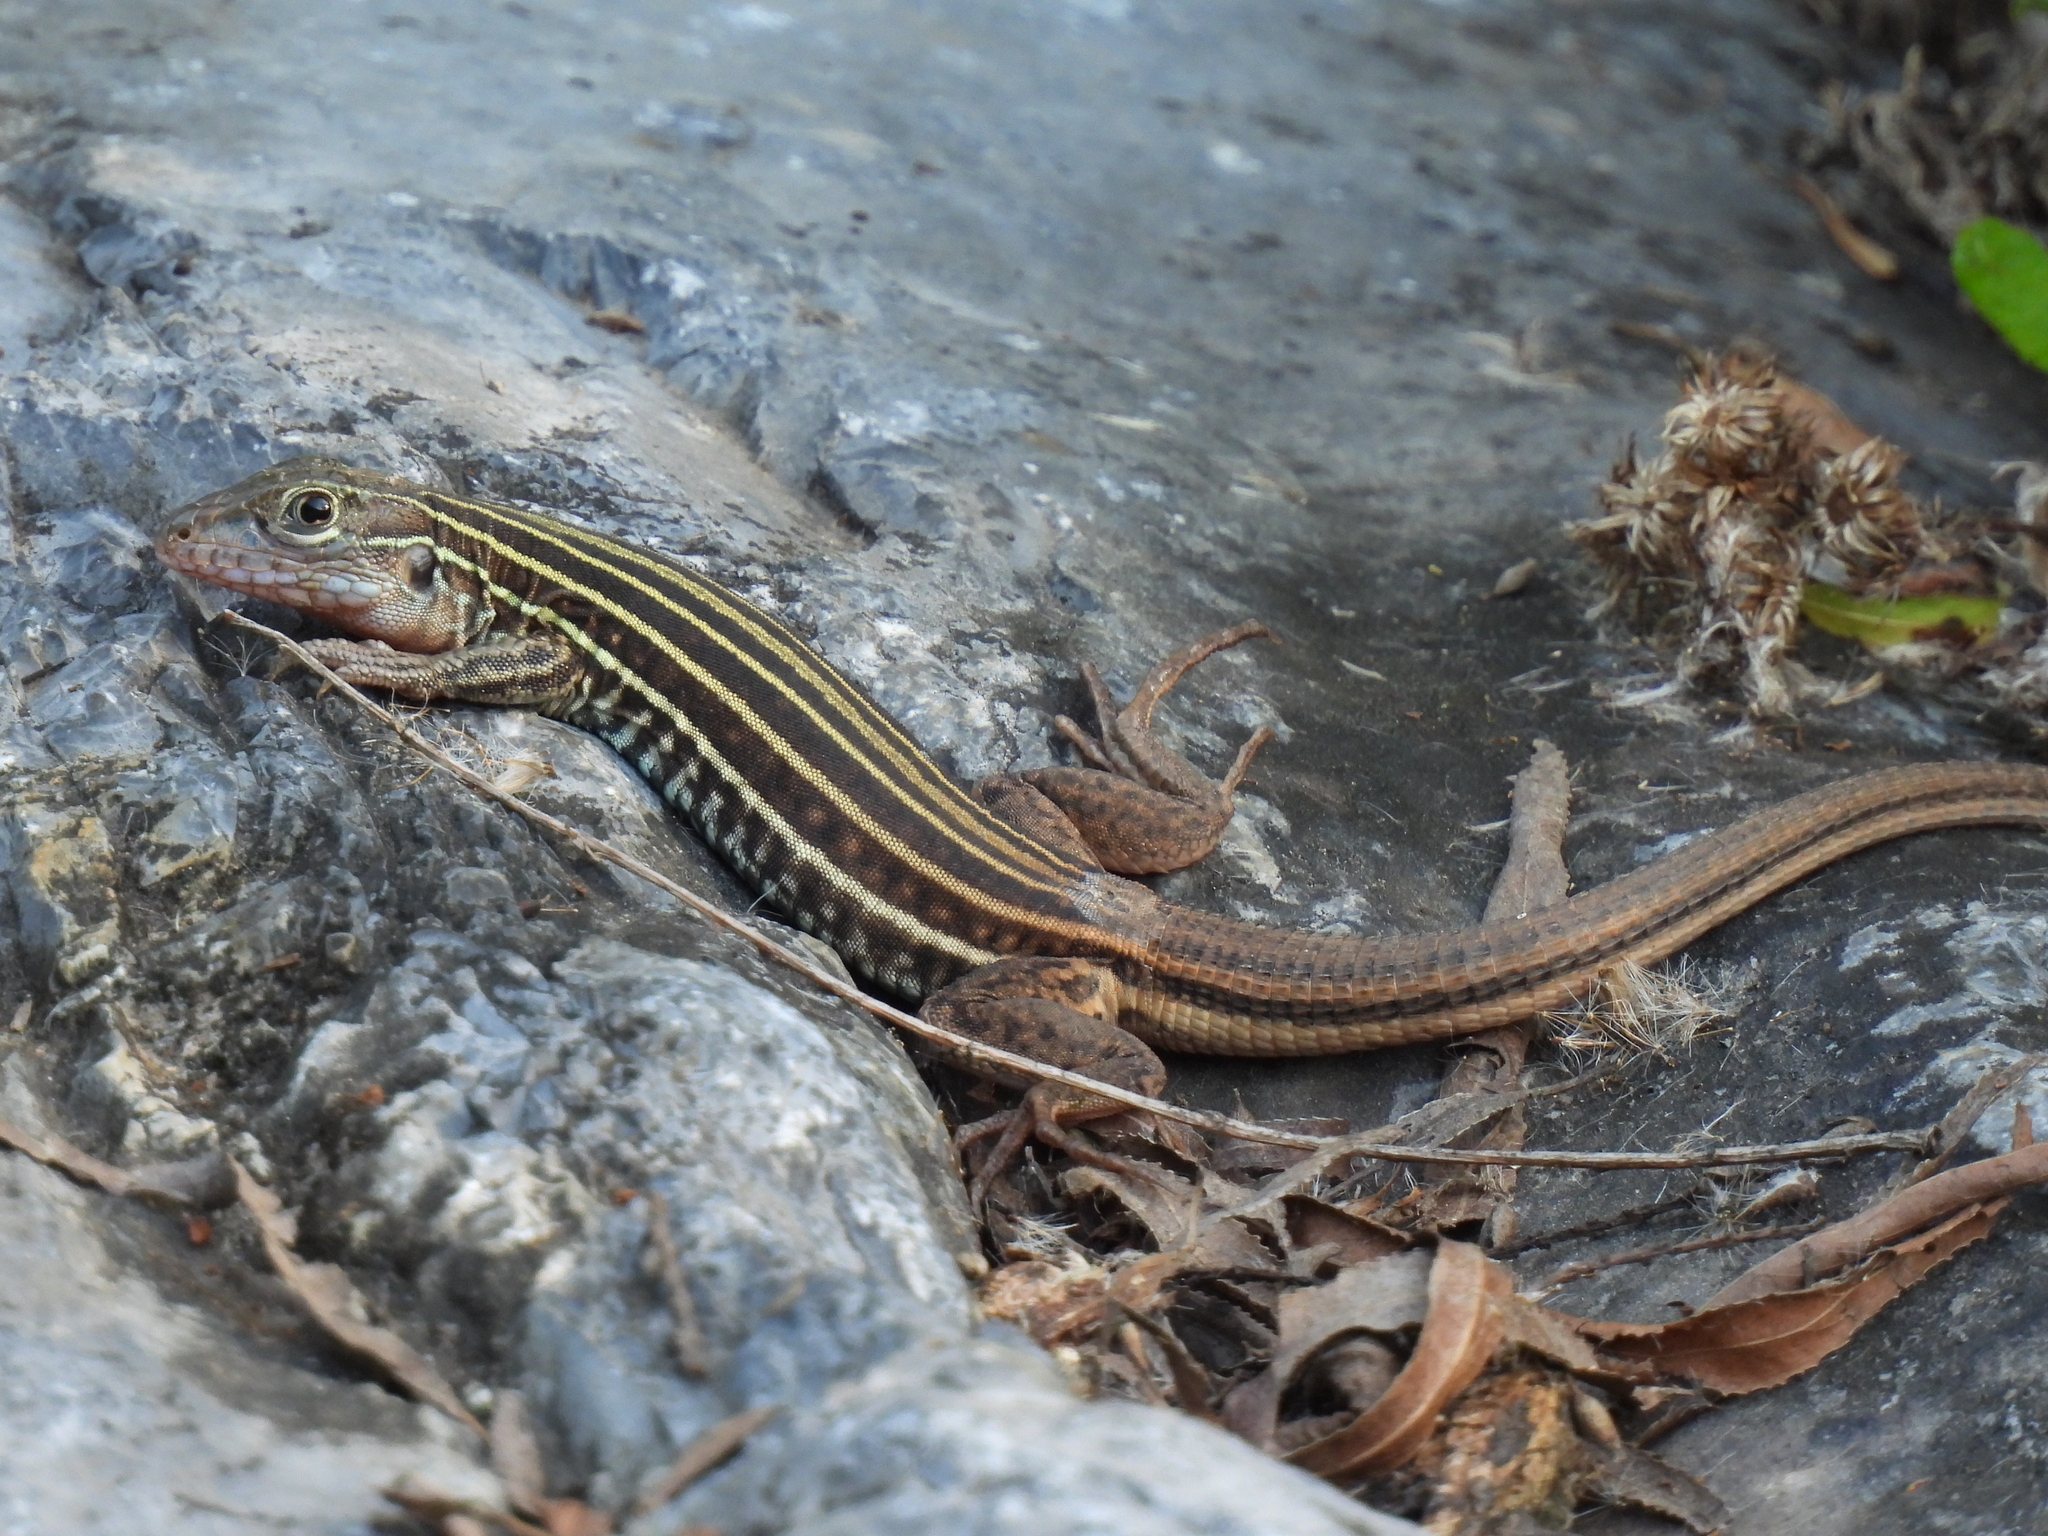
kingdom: Animalia
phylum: Chordata
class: Squamata
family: Teiidae
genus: Aspidoscelis
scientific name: Aspidoscelis gularis
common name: Eastern spotted whiptail
